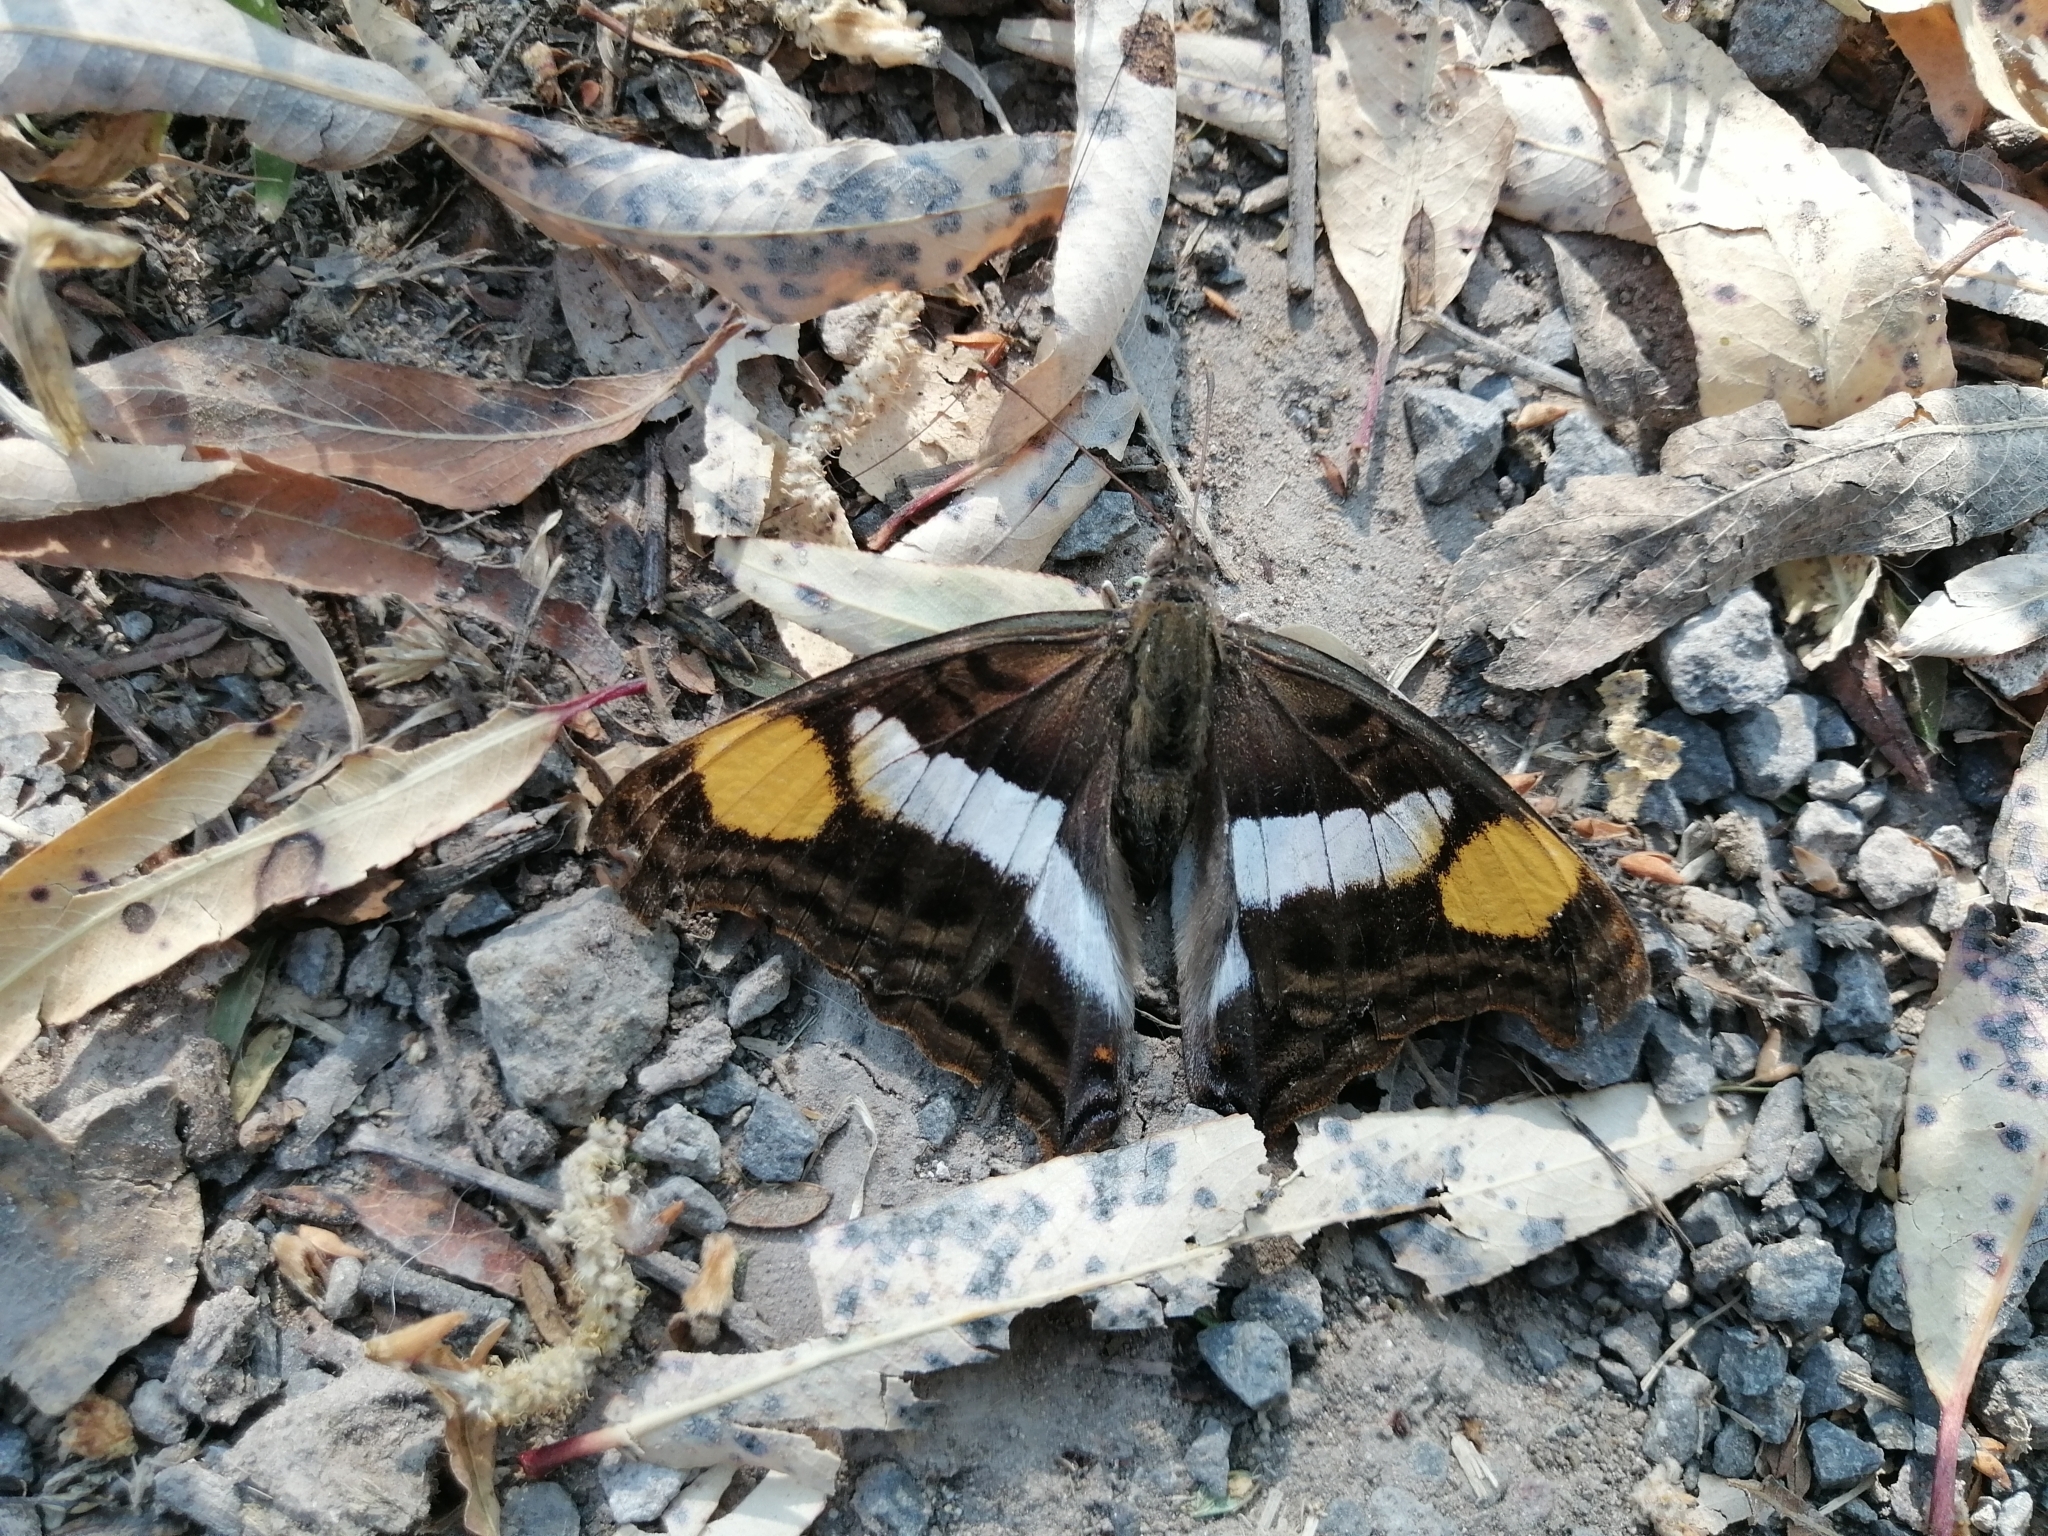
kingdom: Animalia
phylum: Arthropoda
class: Insecta
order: Lepidoptera
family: Nymphalidae
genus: Doxocopa
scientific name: Doxocopa laure
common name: Silver emperor
